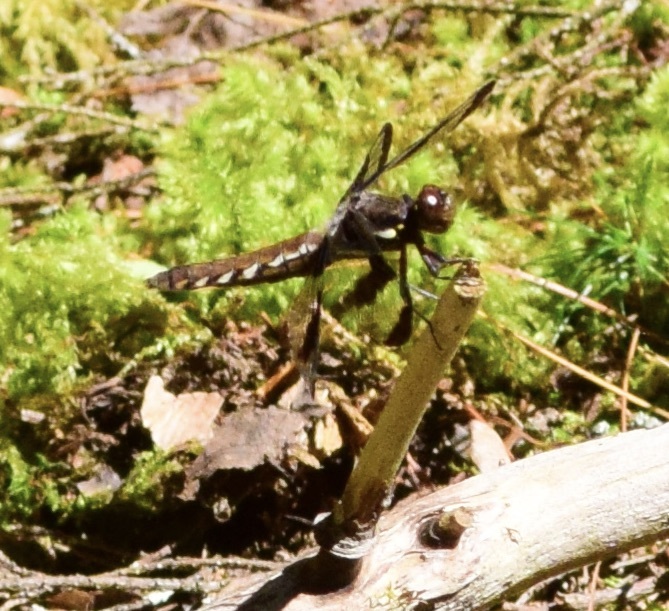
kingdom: Animalia
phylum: Arthropoda
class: Insecta
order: Odonata
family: Libellulidae
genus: Plathemis
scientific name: Plathemis lydia
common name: Common whitetail
